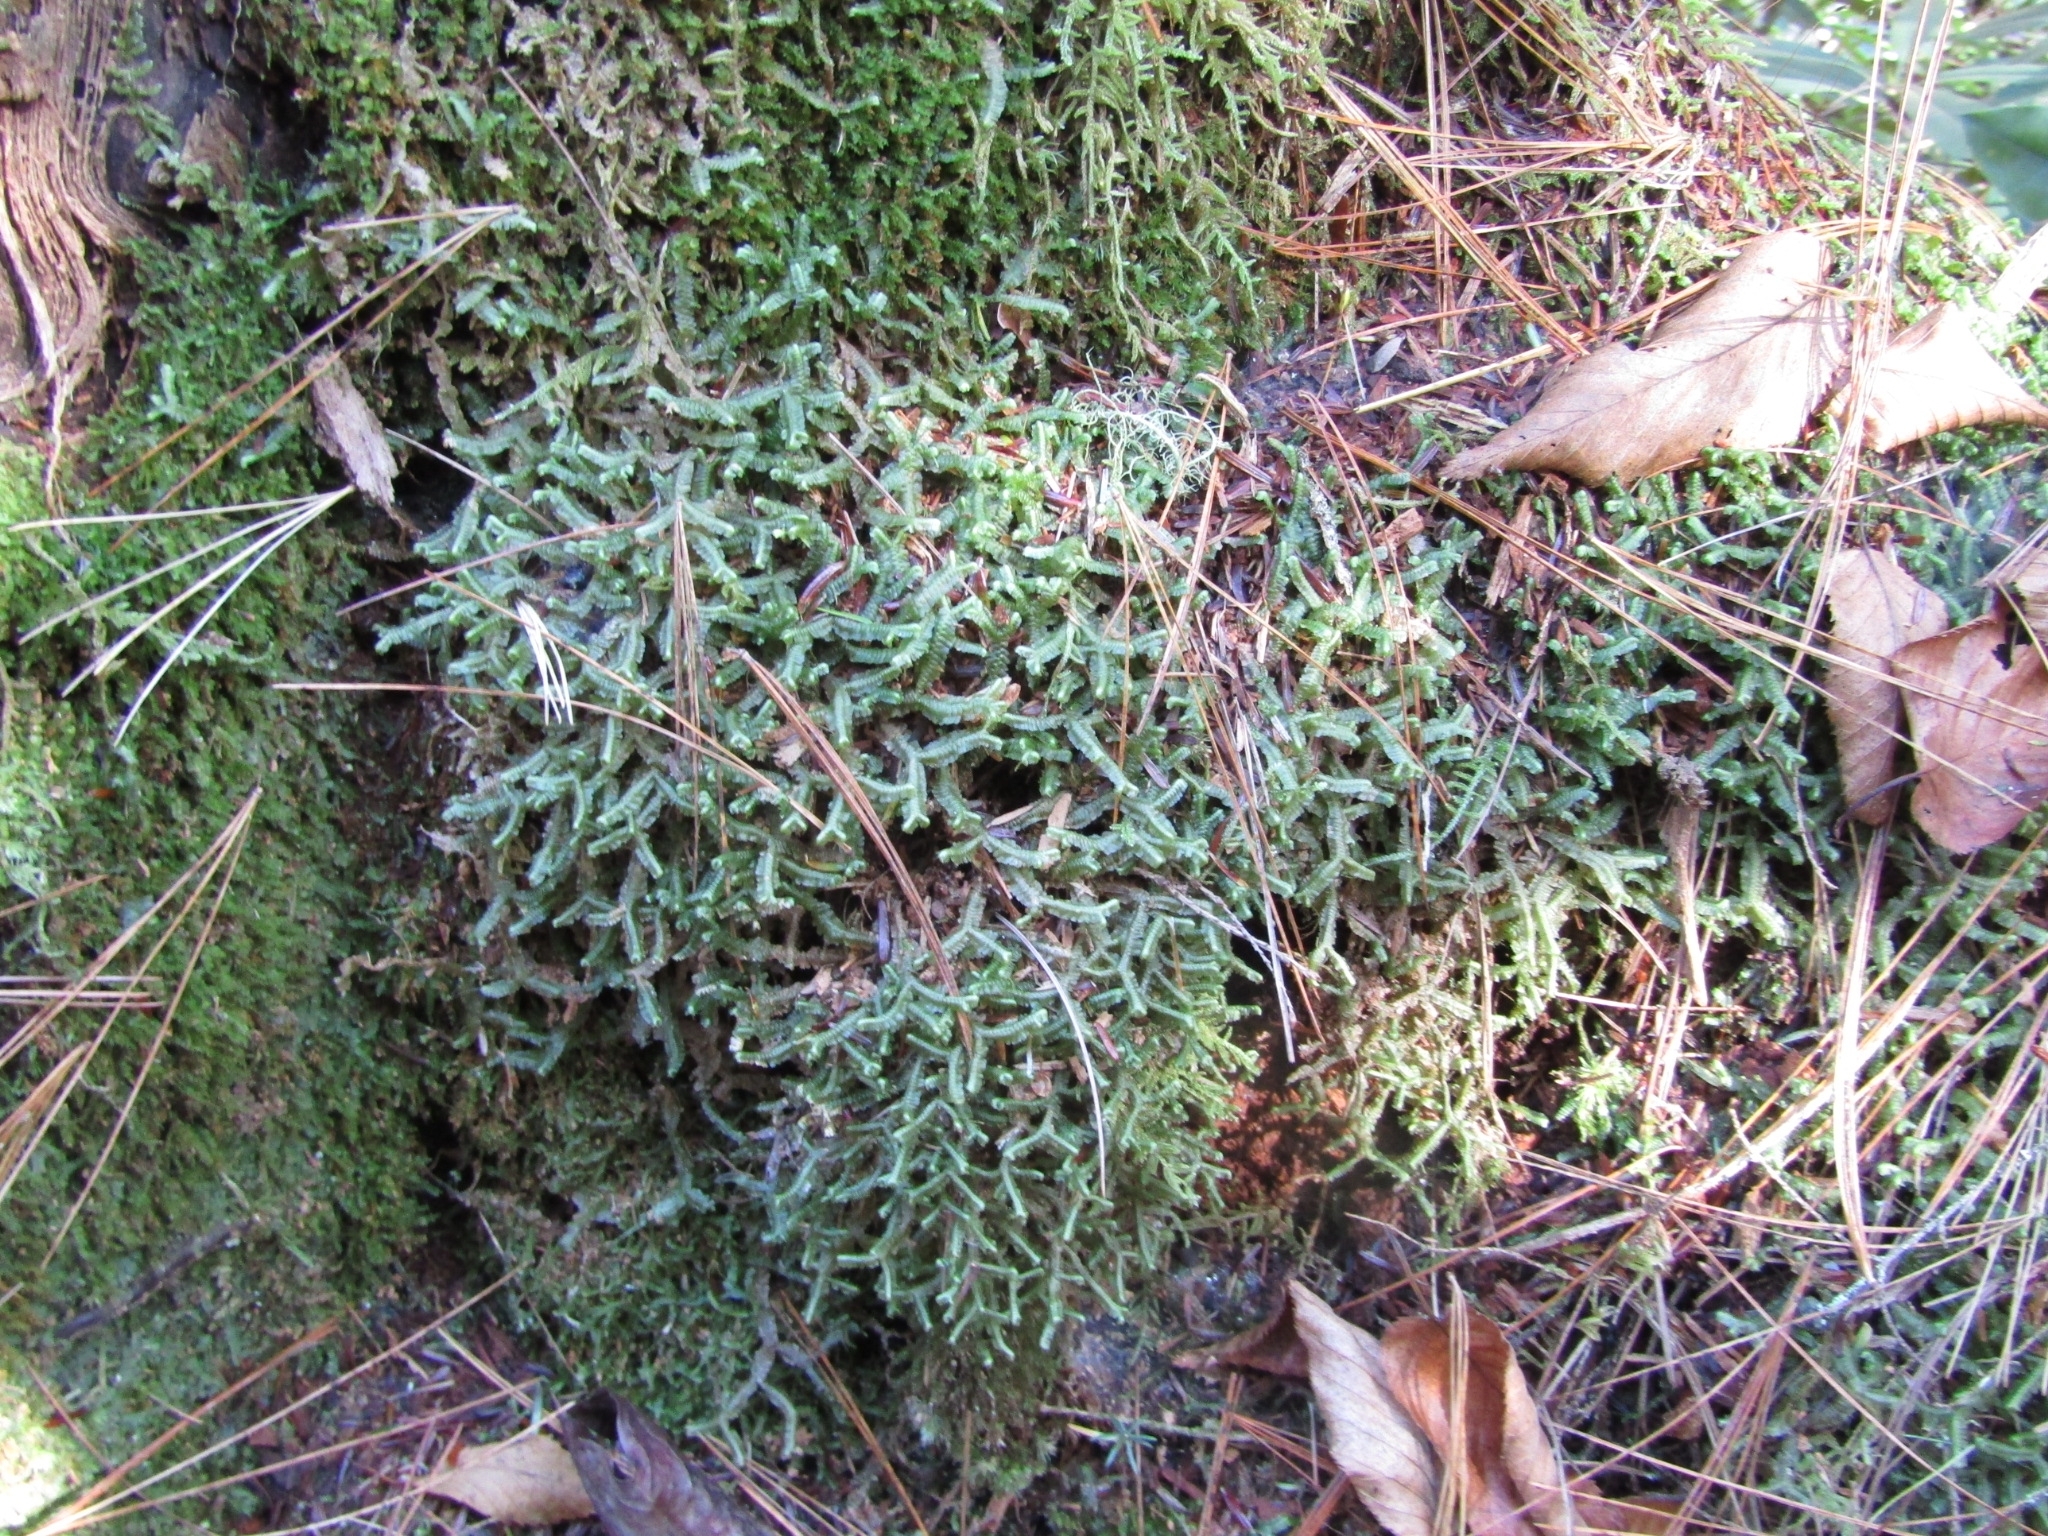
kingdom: Plantae
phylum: Marchantiophyta
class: Jungermanniopsida
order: Jungermanniales
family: Lepidoziaceae
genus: Bazzania
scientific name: Bazzania trilobata
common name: Three-lobed whipwort
